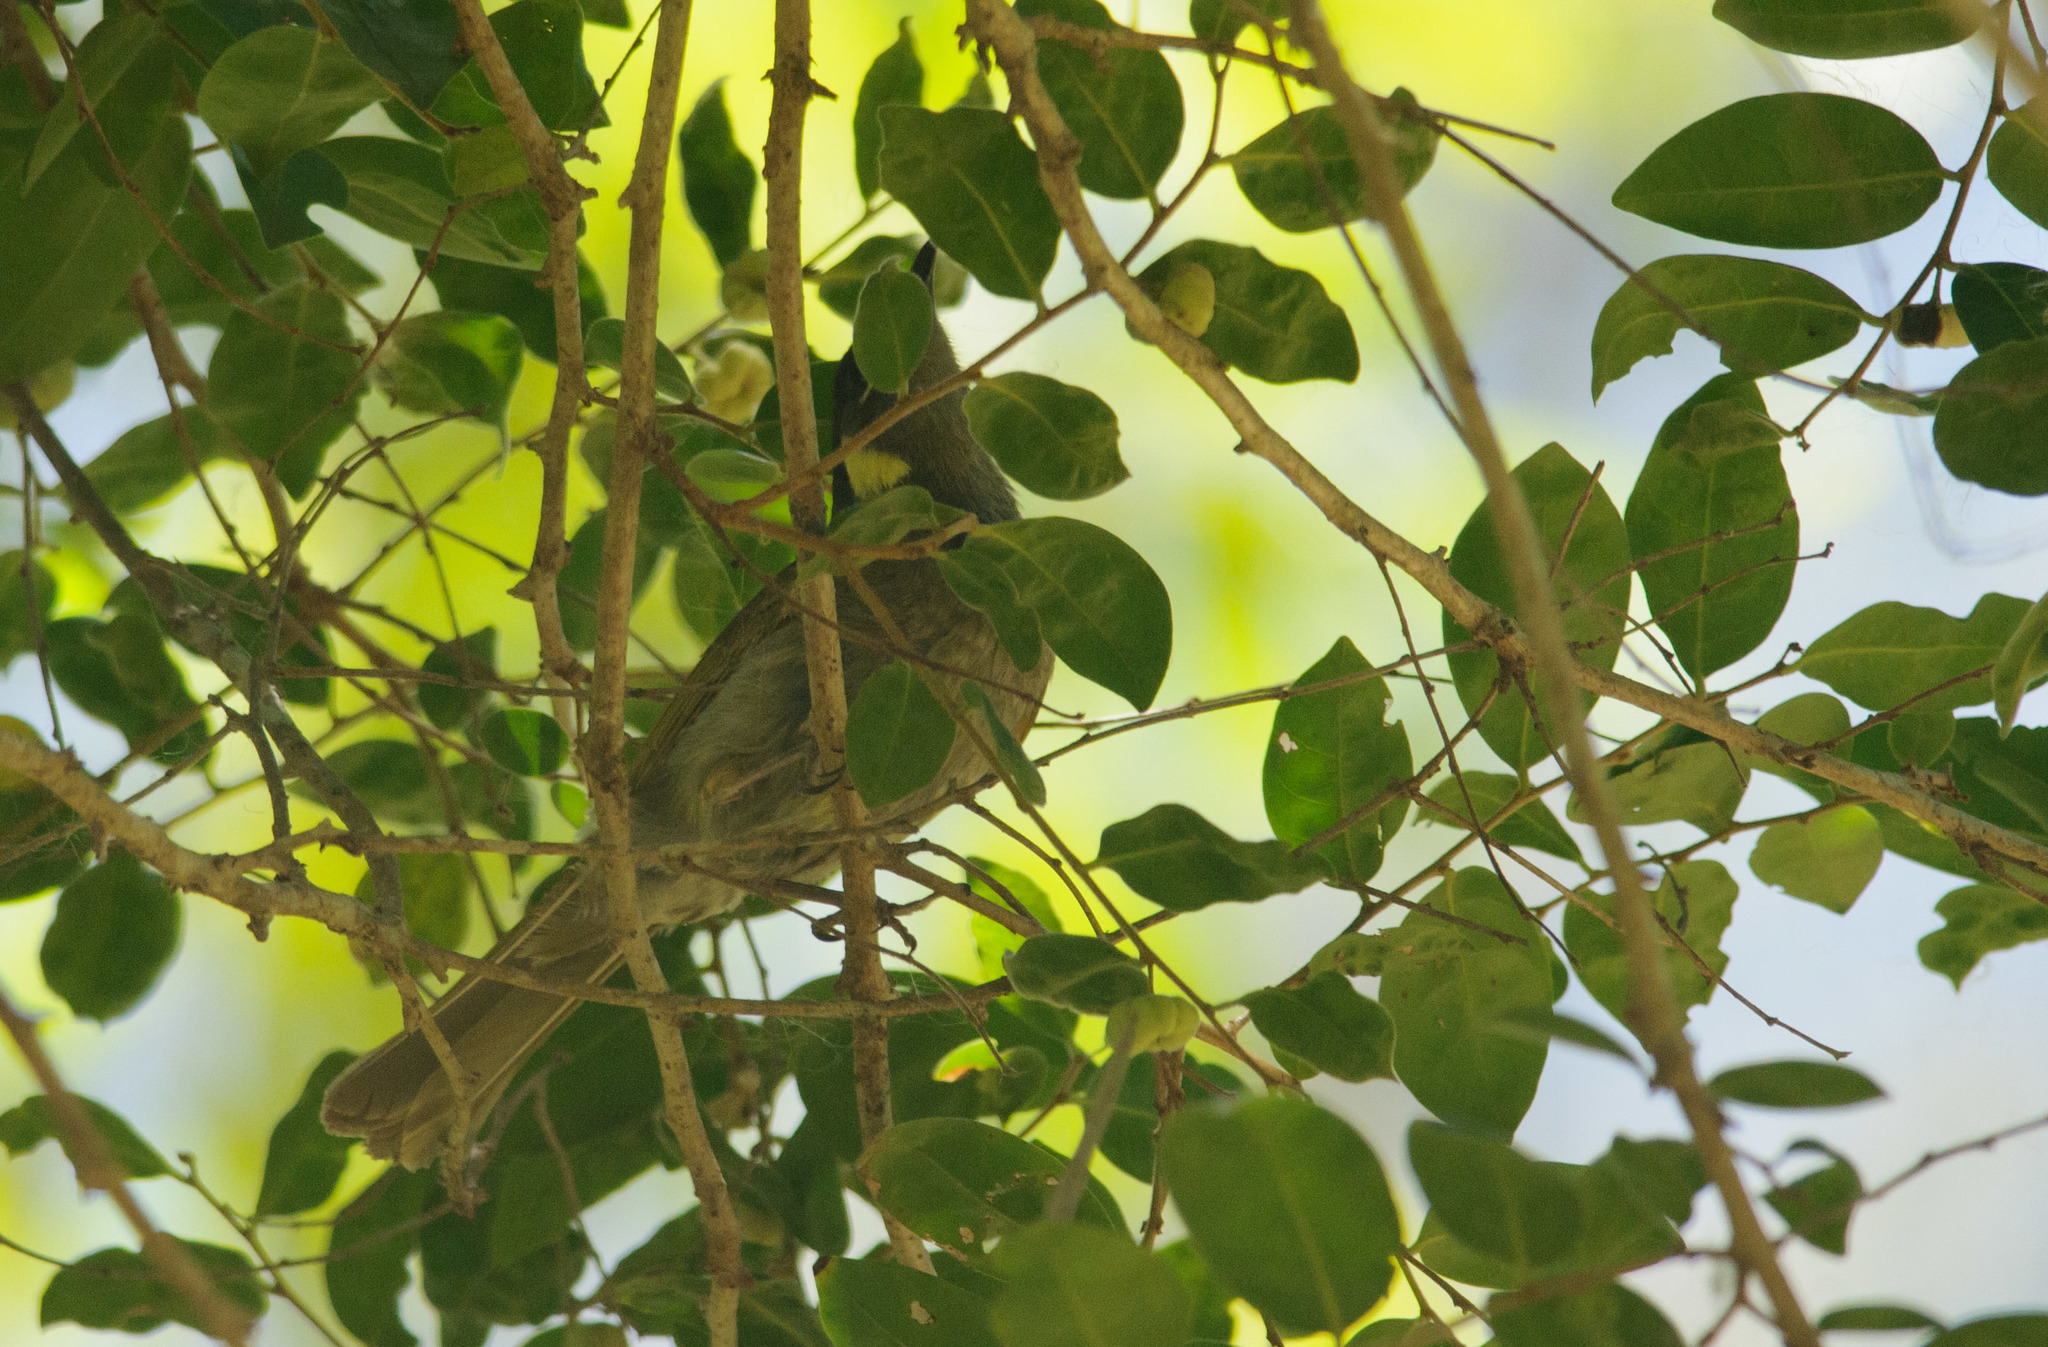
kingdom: Animalia
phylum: Chordata
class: Aves
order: Passeriformes
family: Meliphagidae
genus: Meliphaga
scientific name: Meliphaga lewinii
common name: Lewin's honeyeater
